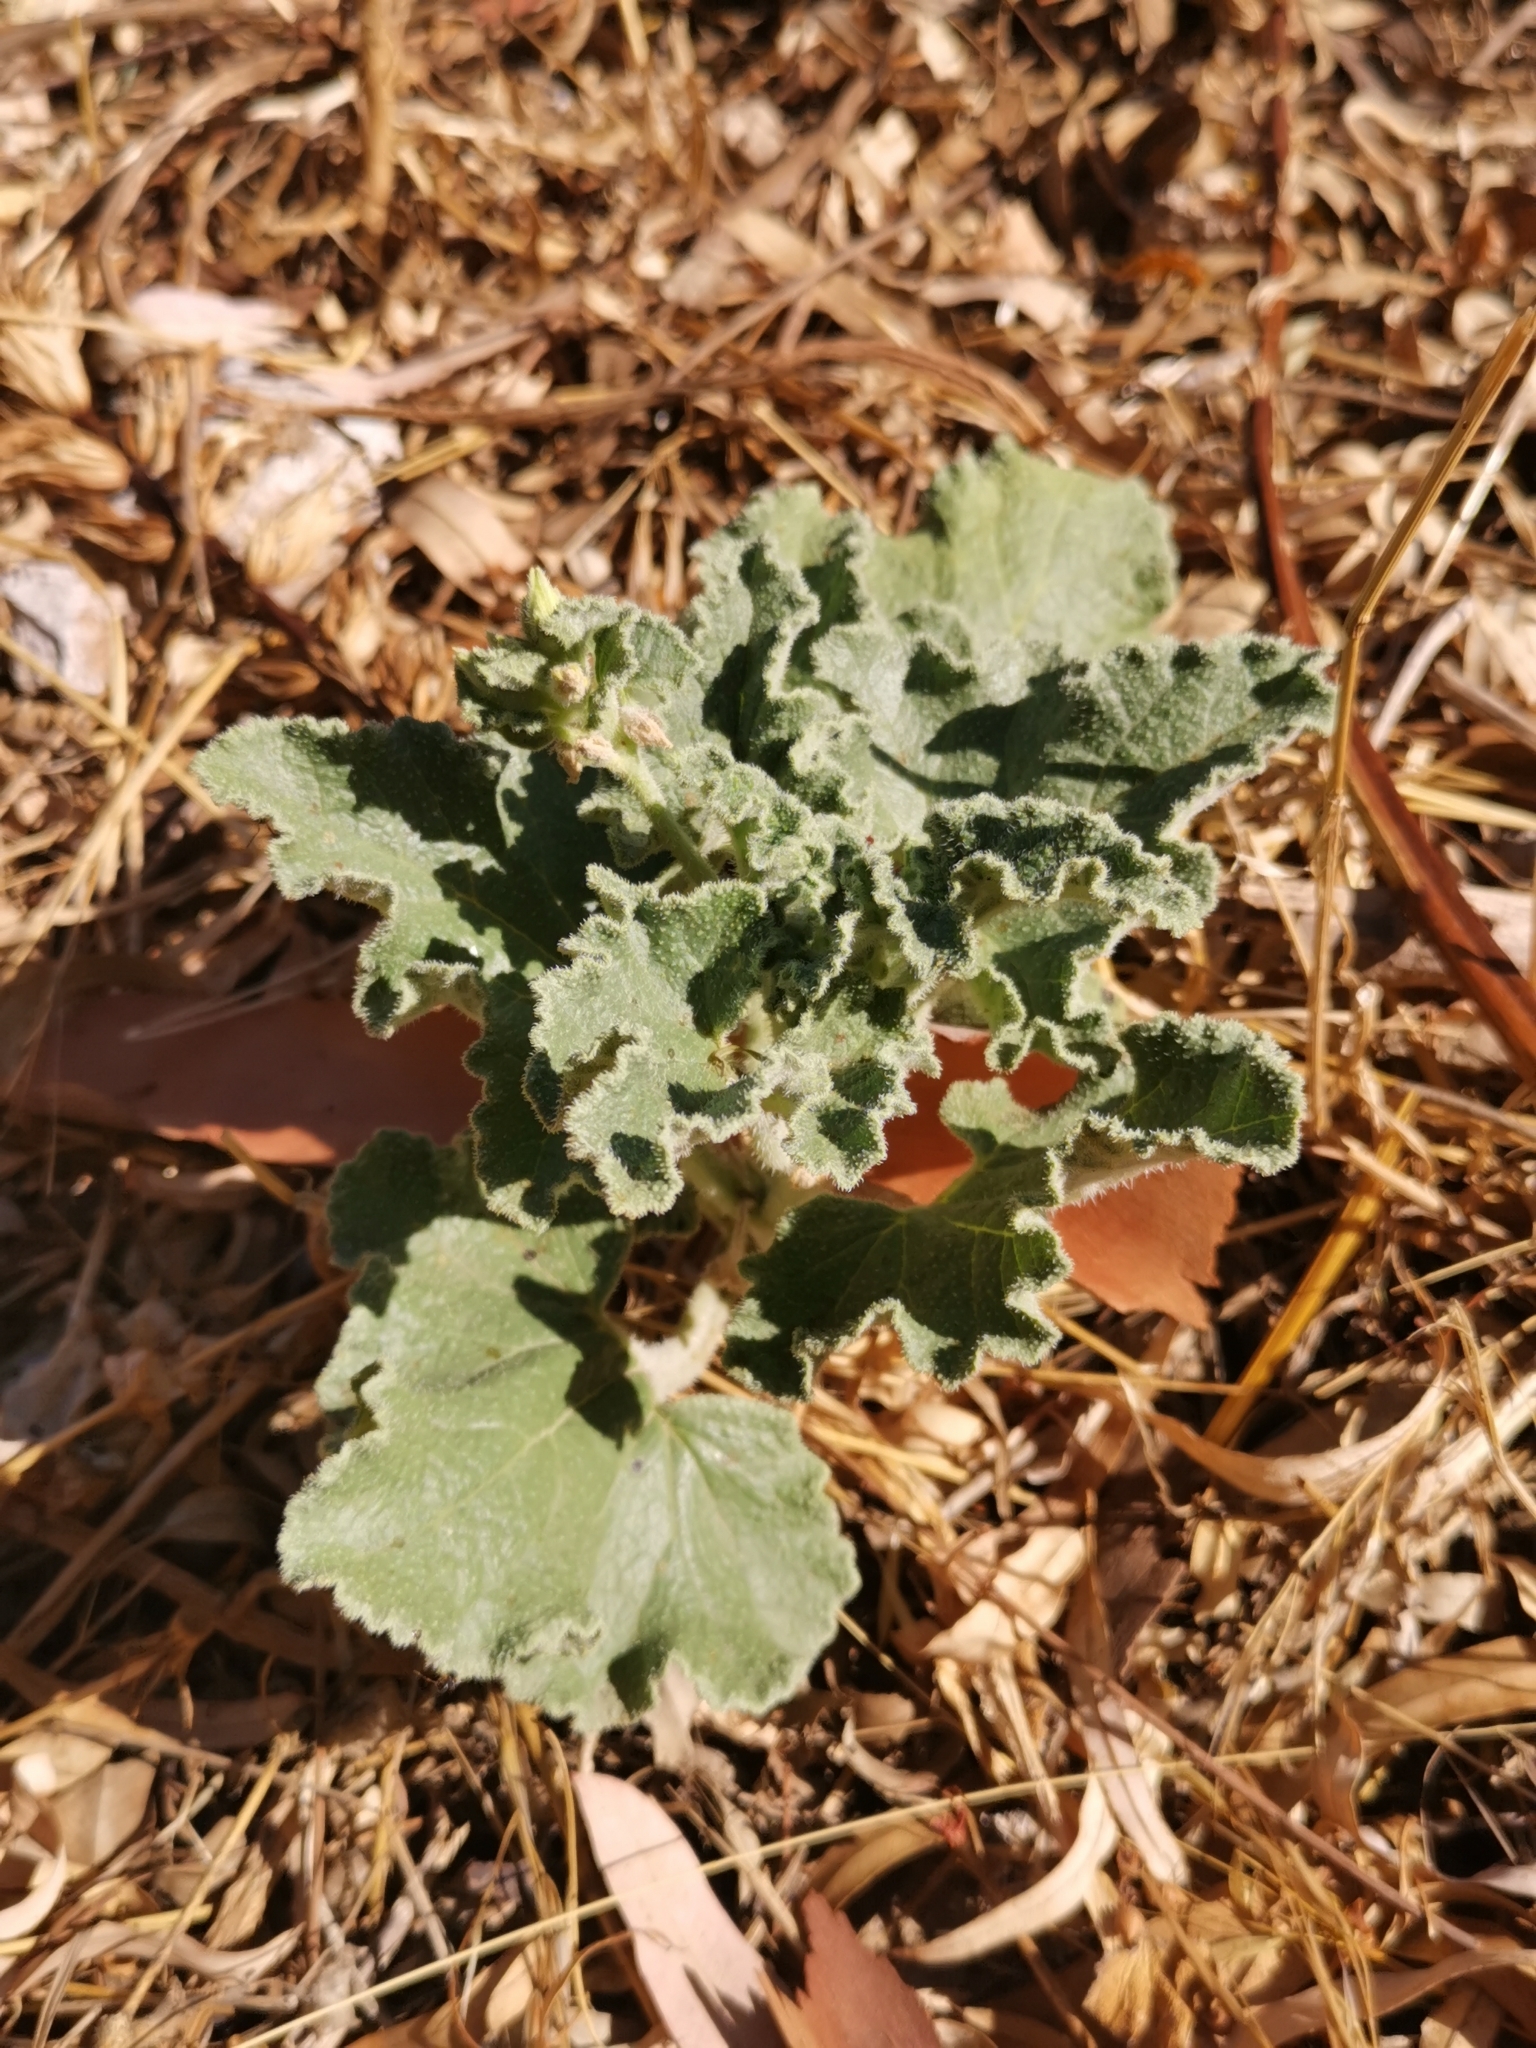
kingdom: Plantae
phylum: Tracheophyta
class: Magnoliopsida
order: Cucurbitales
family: Cucurbitaceae
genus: Ecballium
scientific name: Ecballium elaterium
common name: Squirting cucumber
